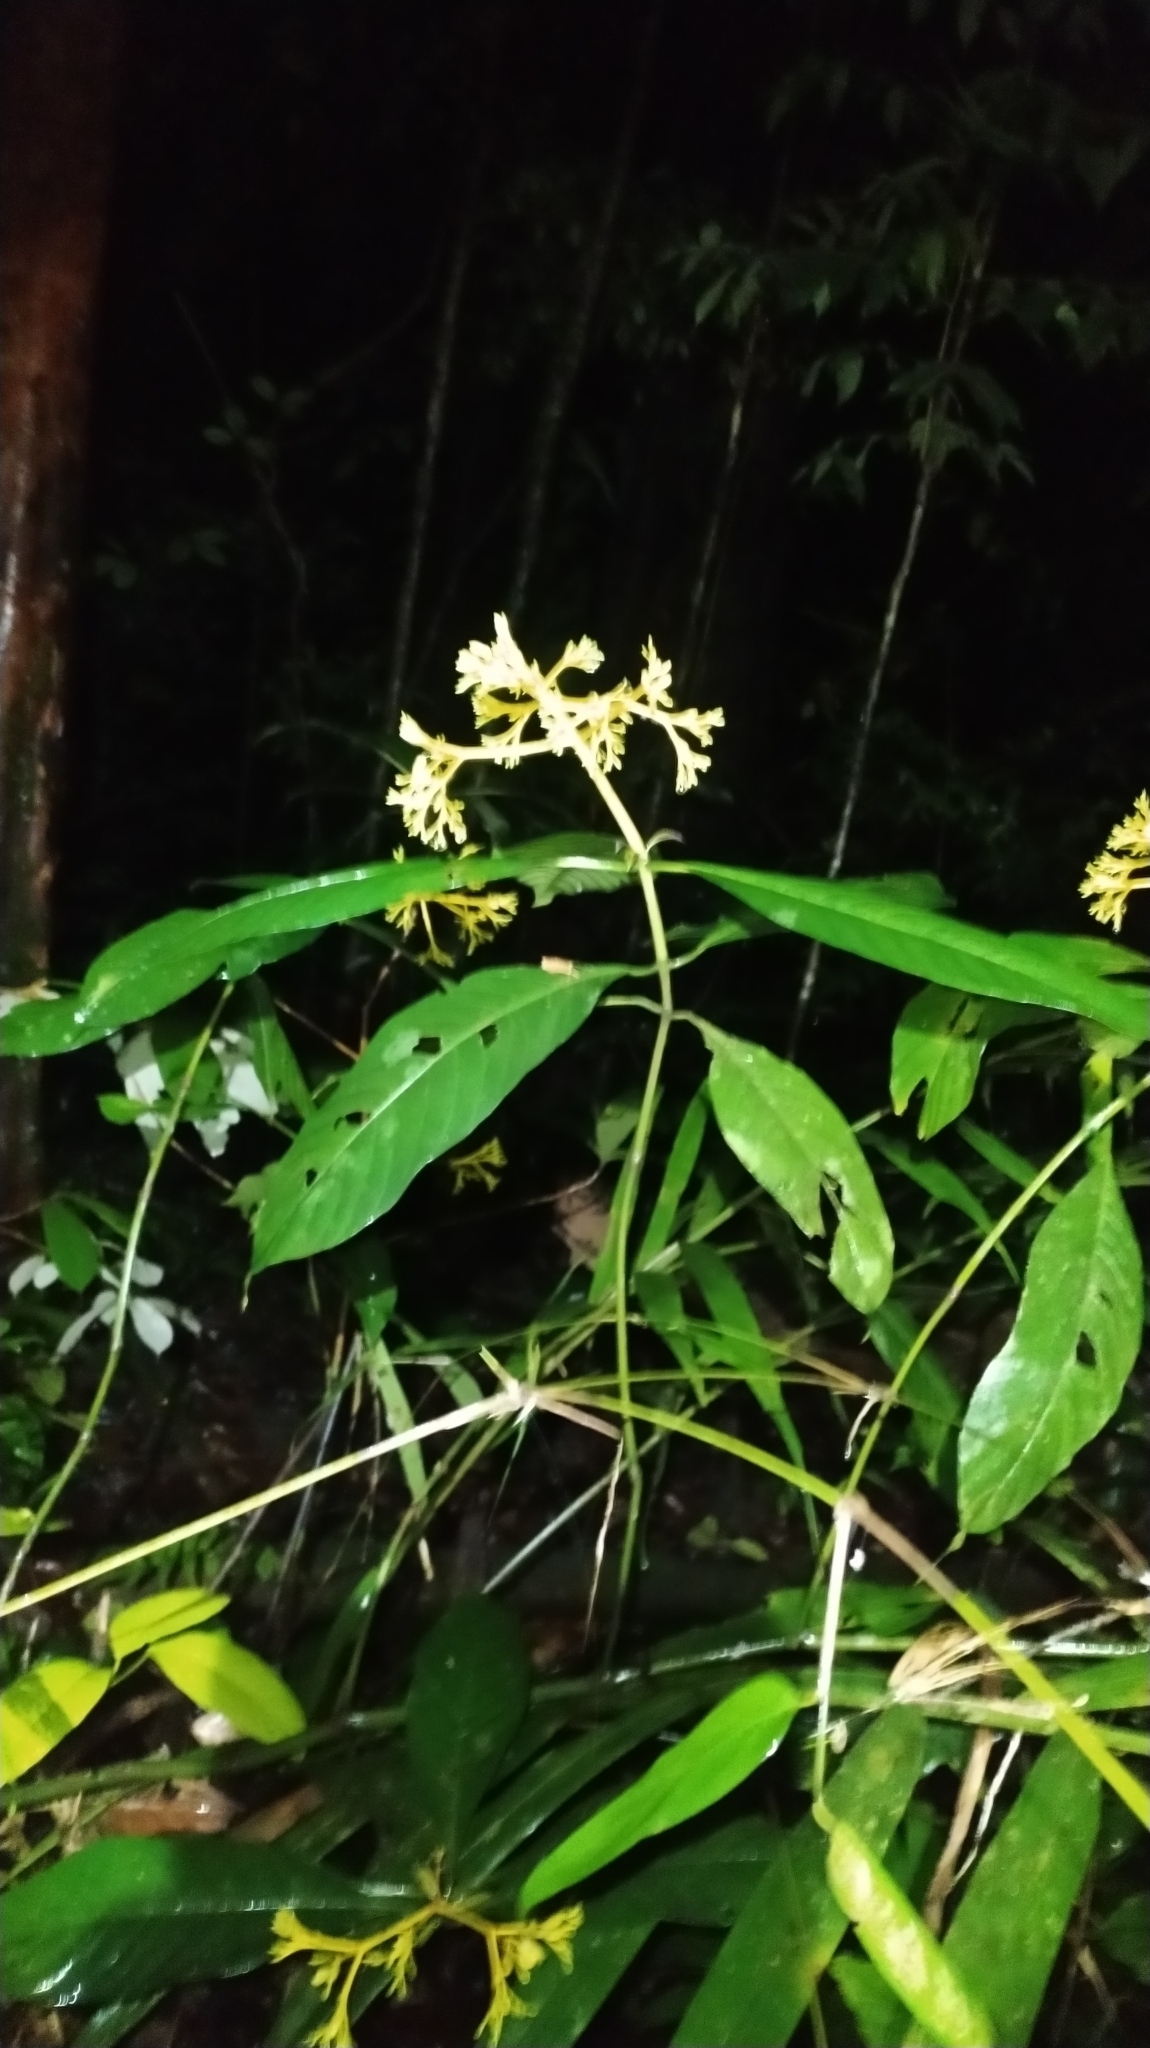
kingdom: Plantae
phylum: Tracheophyta
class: Magnoliopsida
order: Gentianales
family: Rubiaceae
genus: Palicourea
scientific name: Palicourea quadrifolia
